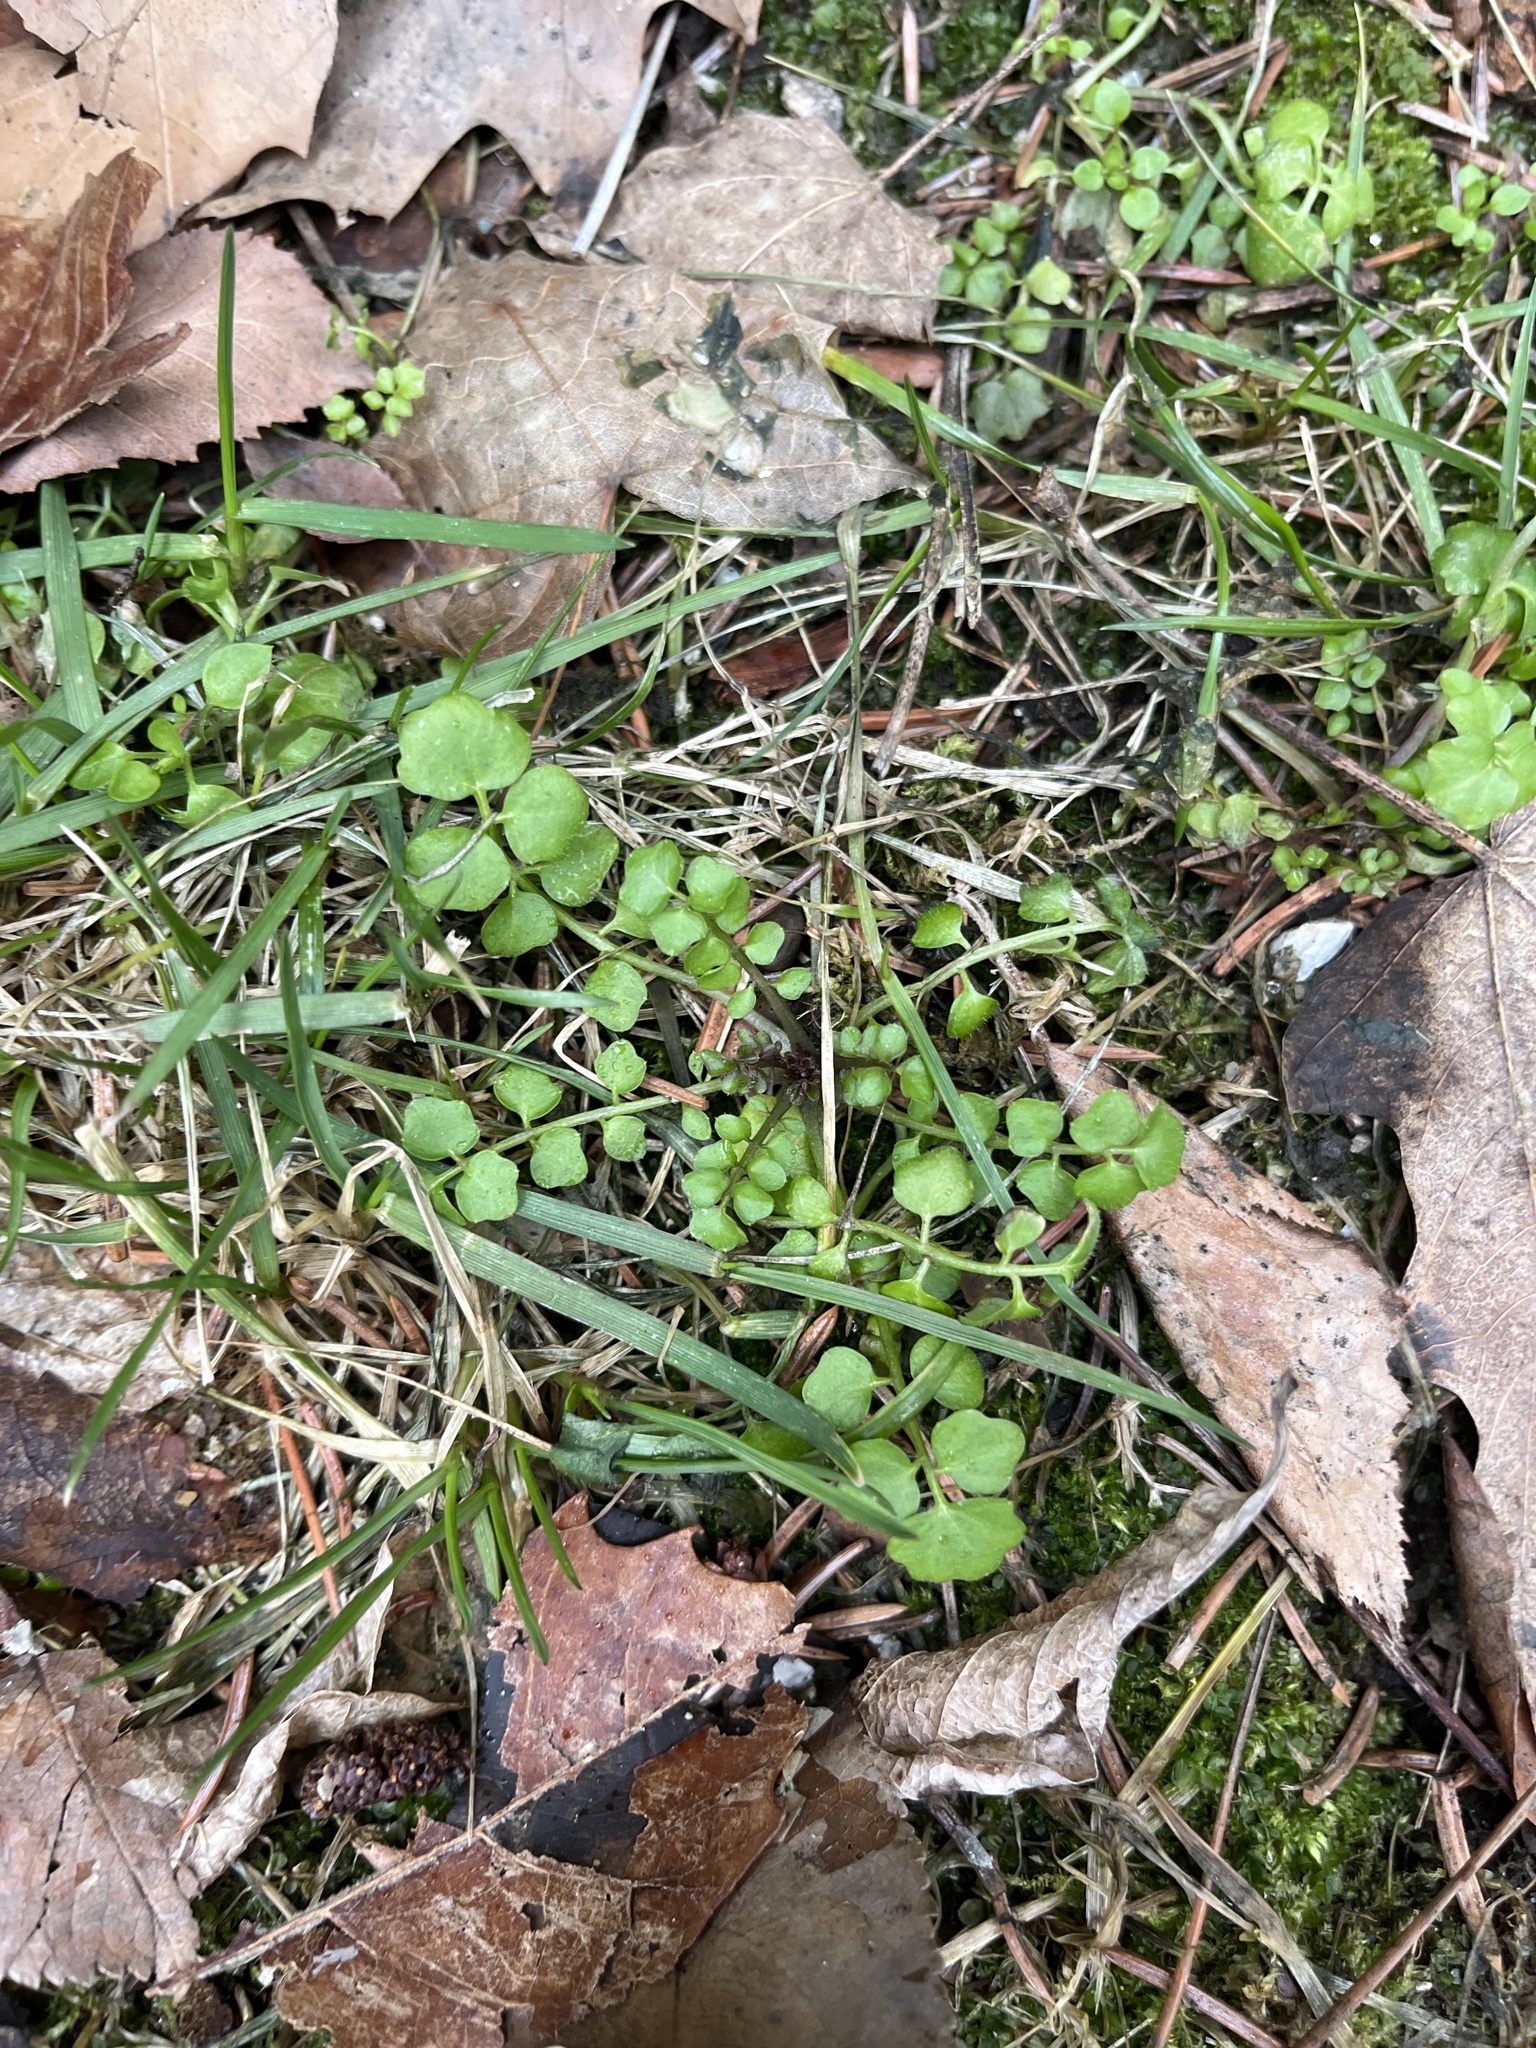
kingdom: Plantae
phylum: Tracheophyta
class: Magnoliopsida
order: Brassicales
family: Brassicaceae
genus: Cardamine
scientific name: Cardamine hirsuta
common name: Hairy bittercress
